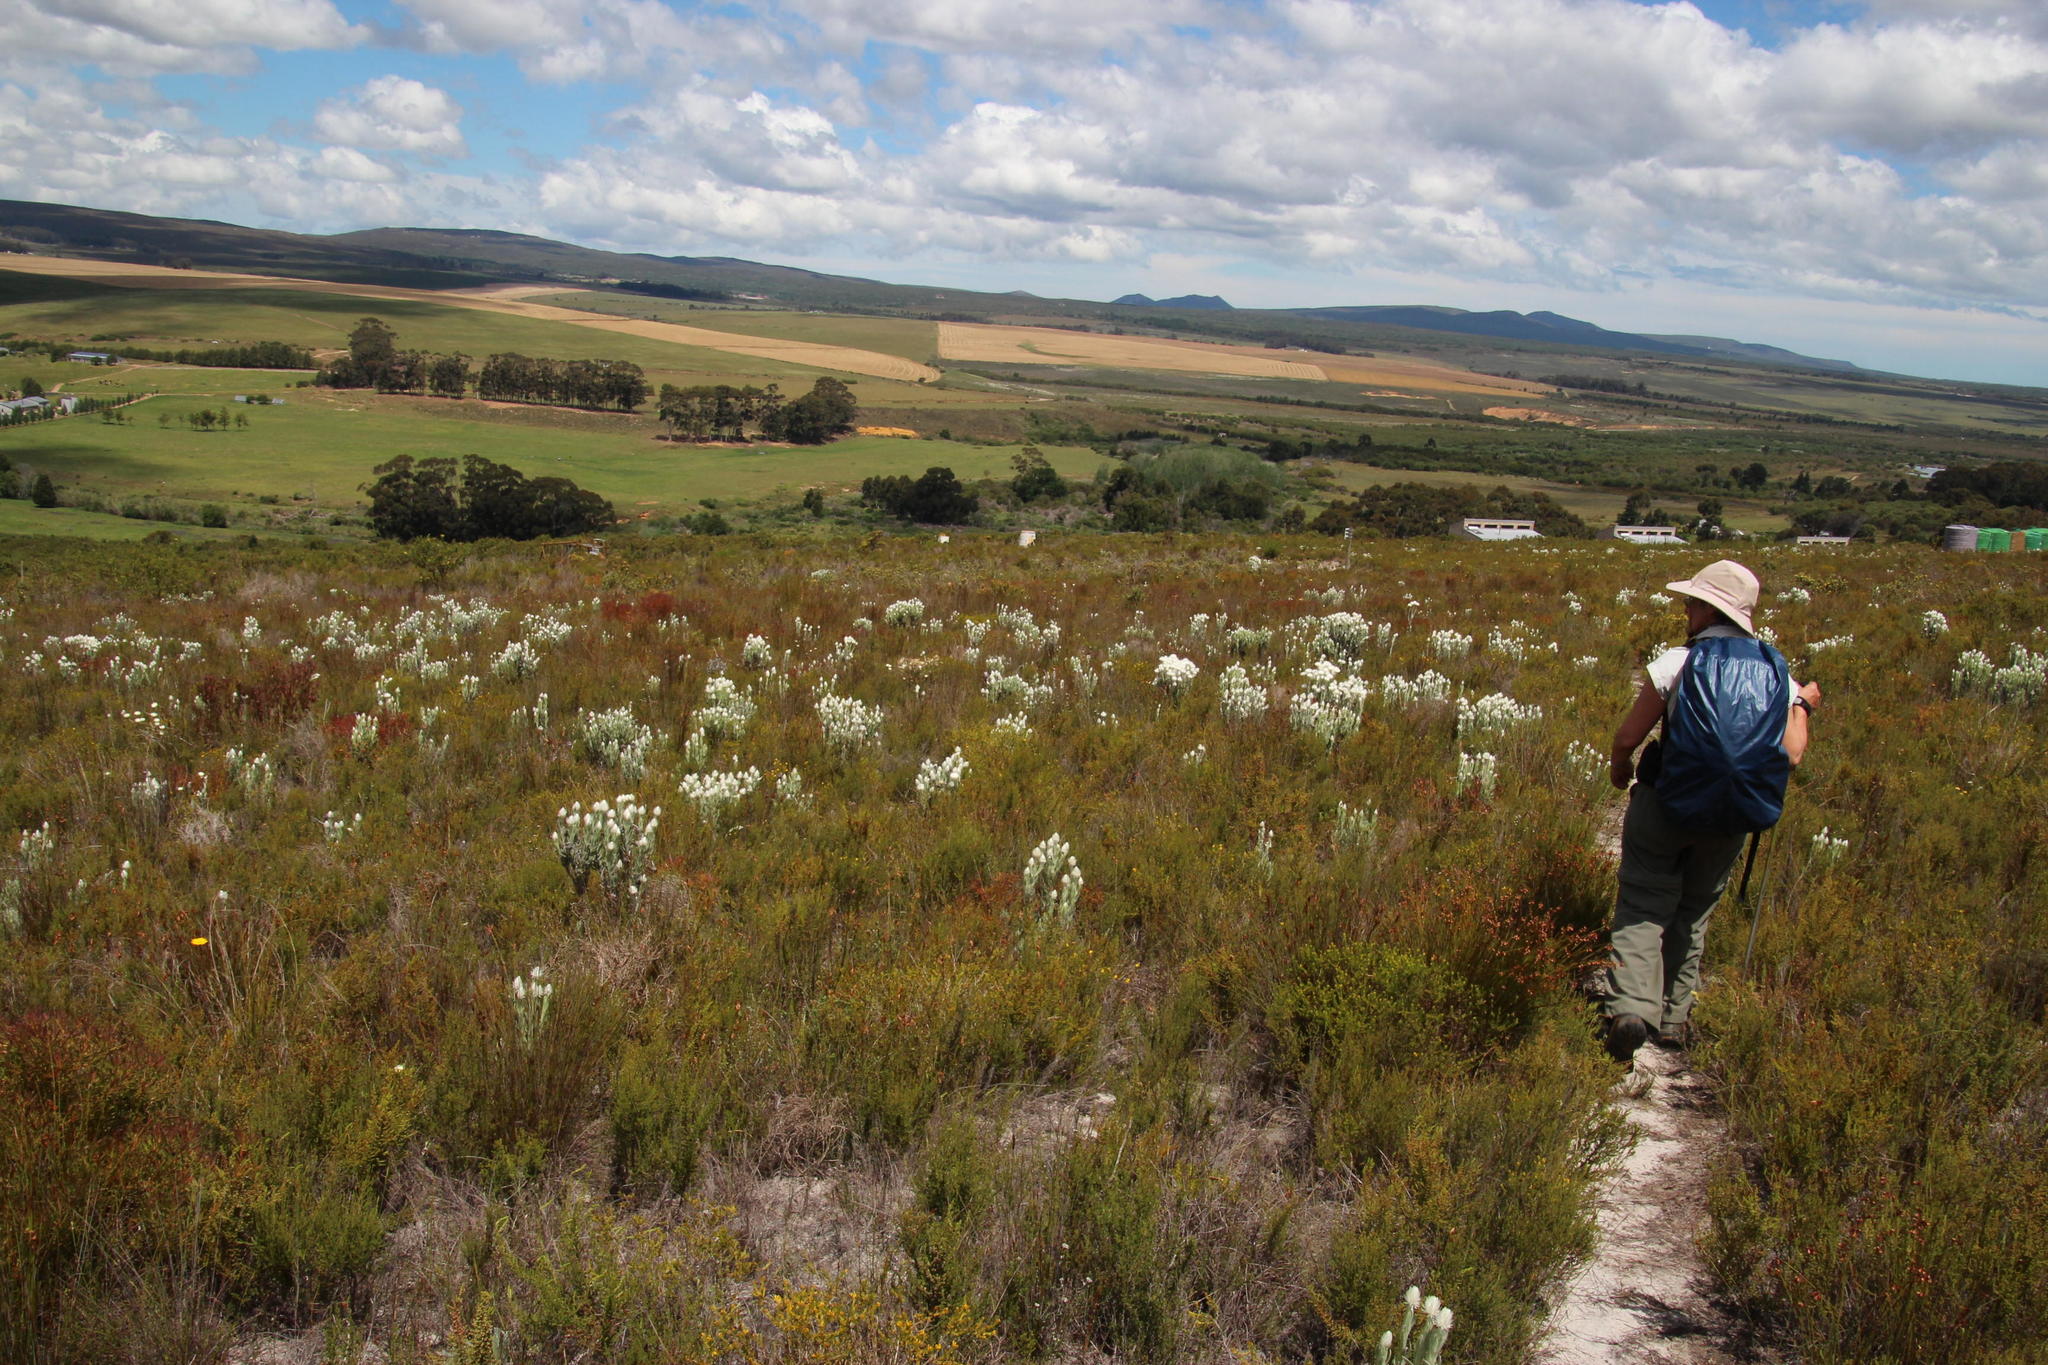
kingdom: Plantae
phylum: Tracheophyta
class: Magnoliopsida
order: Asterales
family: Asteraceae
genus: Syncarpha
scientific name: Syncarpha vestita
